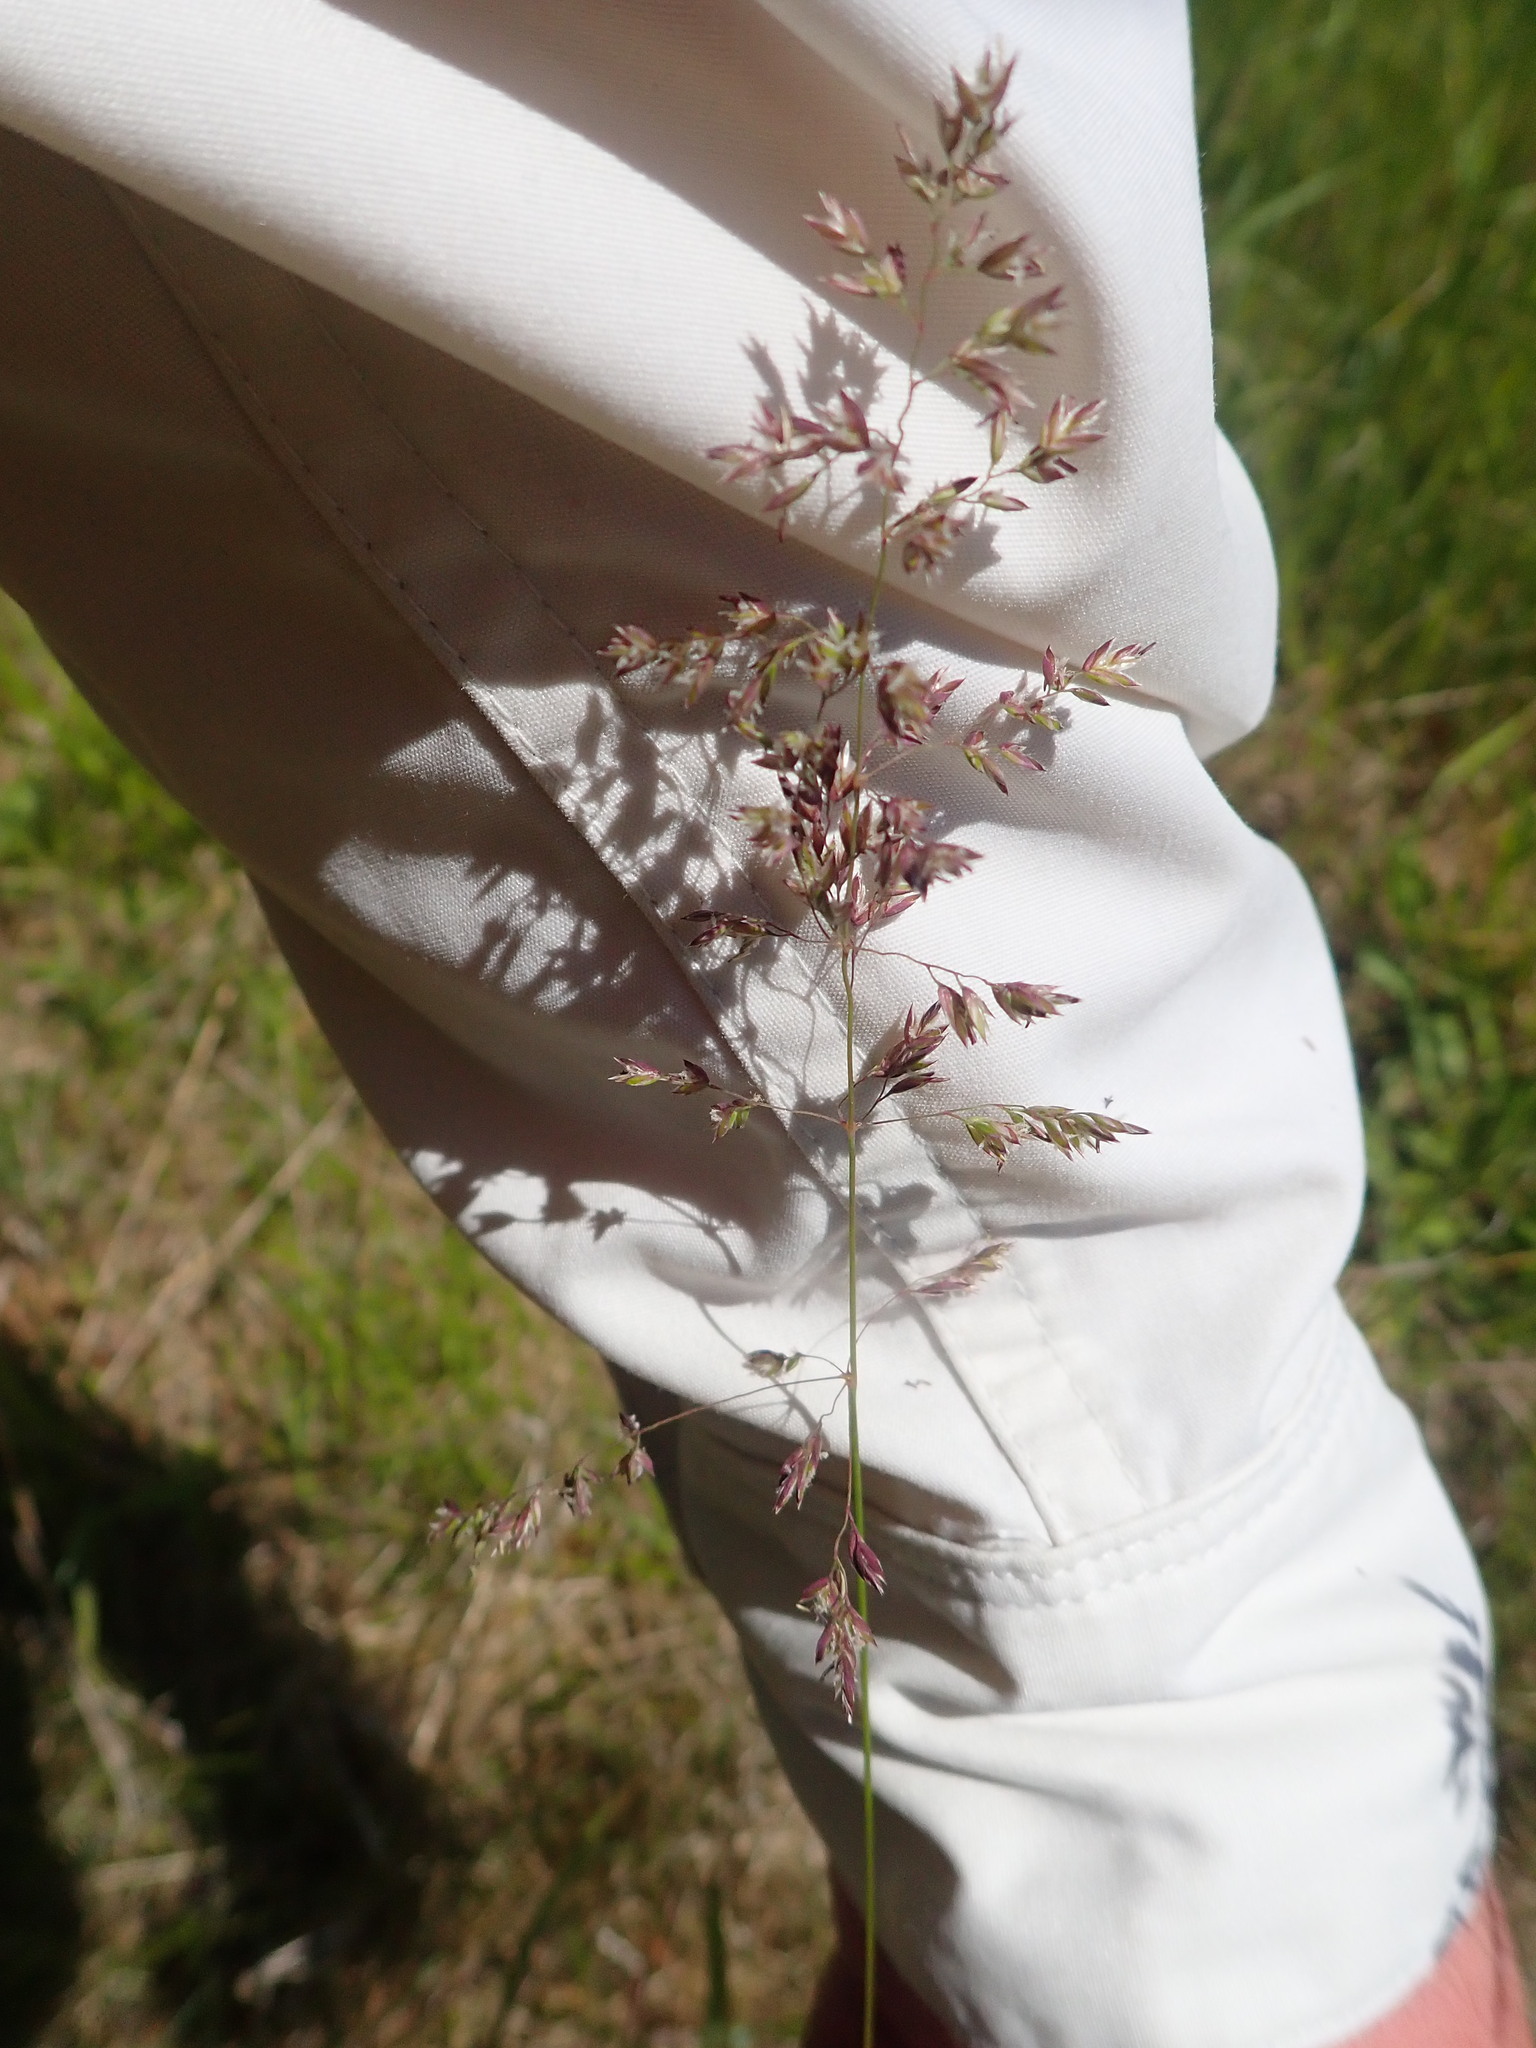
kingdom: Plantae
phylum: Tracheophyta
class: Liliopsida
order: Poales
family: Poaceae
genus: Agrostis
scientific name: Agrostis gigantea
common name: Black bent
